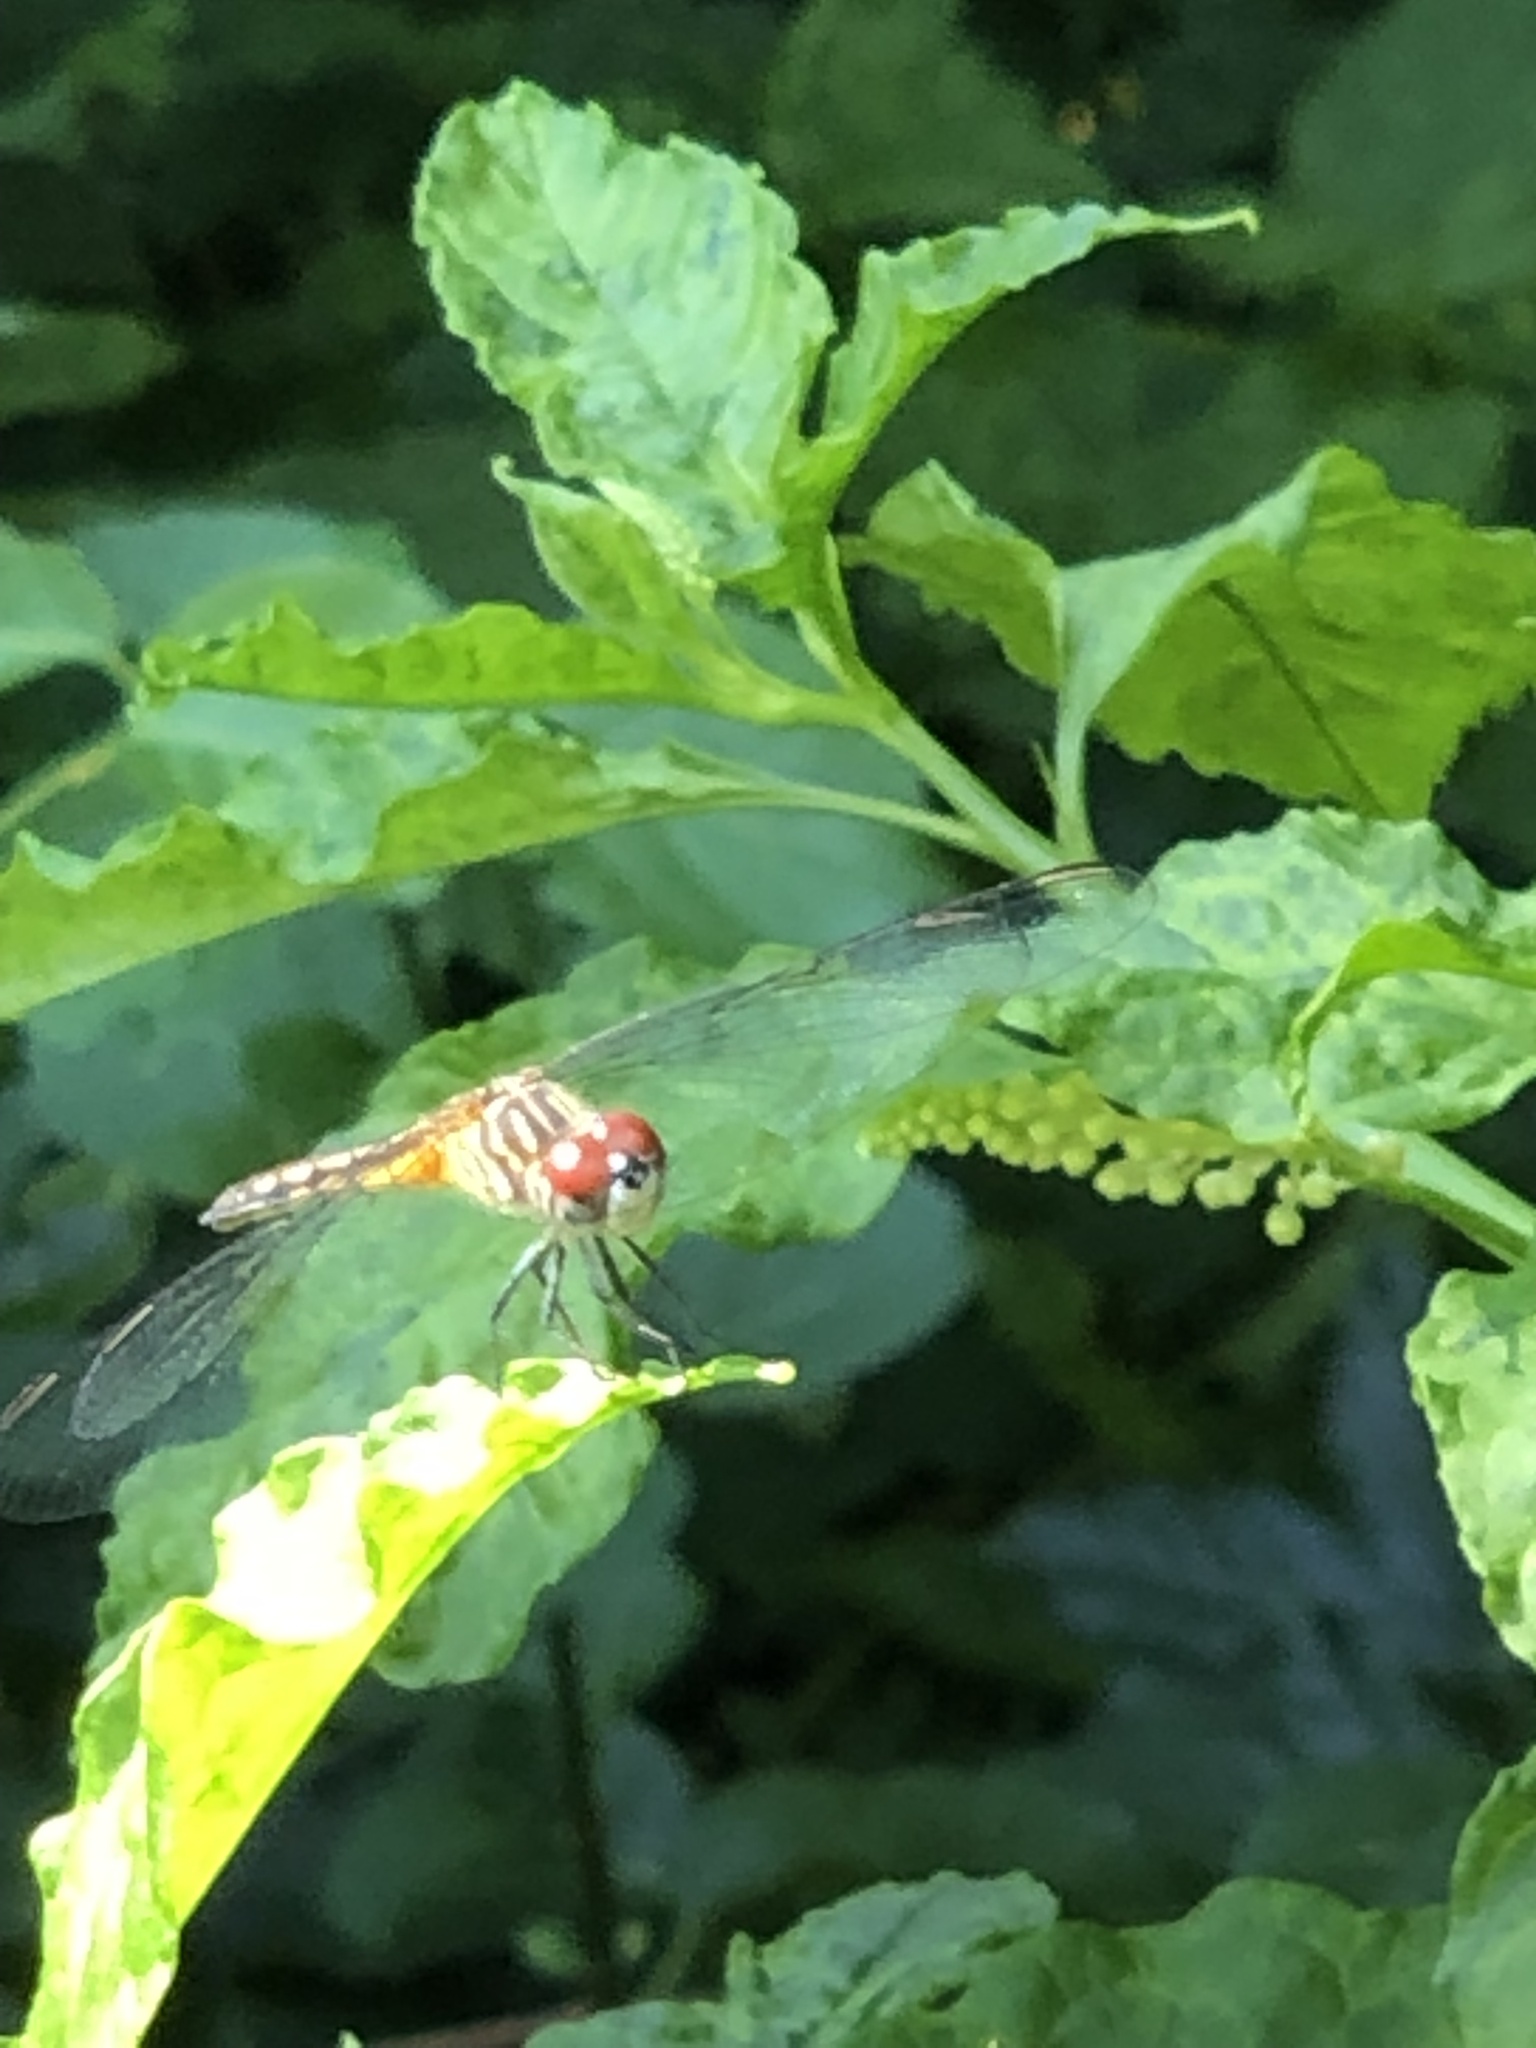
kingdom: Animalia
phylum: Arthropoda
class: Insecta
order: Odonata
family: Libellulidae
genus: Pachydiplax
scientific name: Pachydiplax longipennis
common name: Blue dasher
